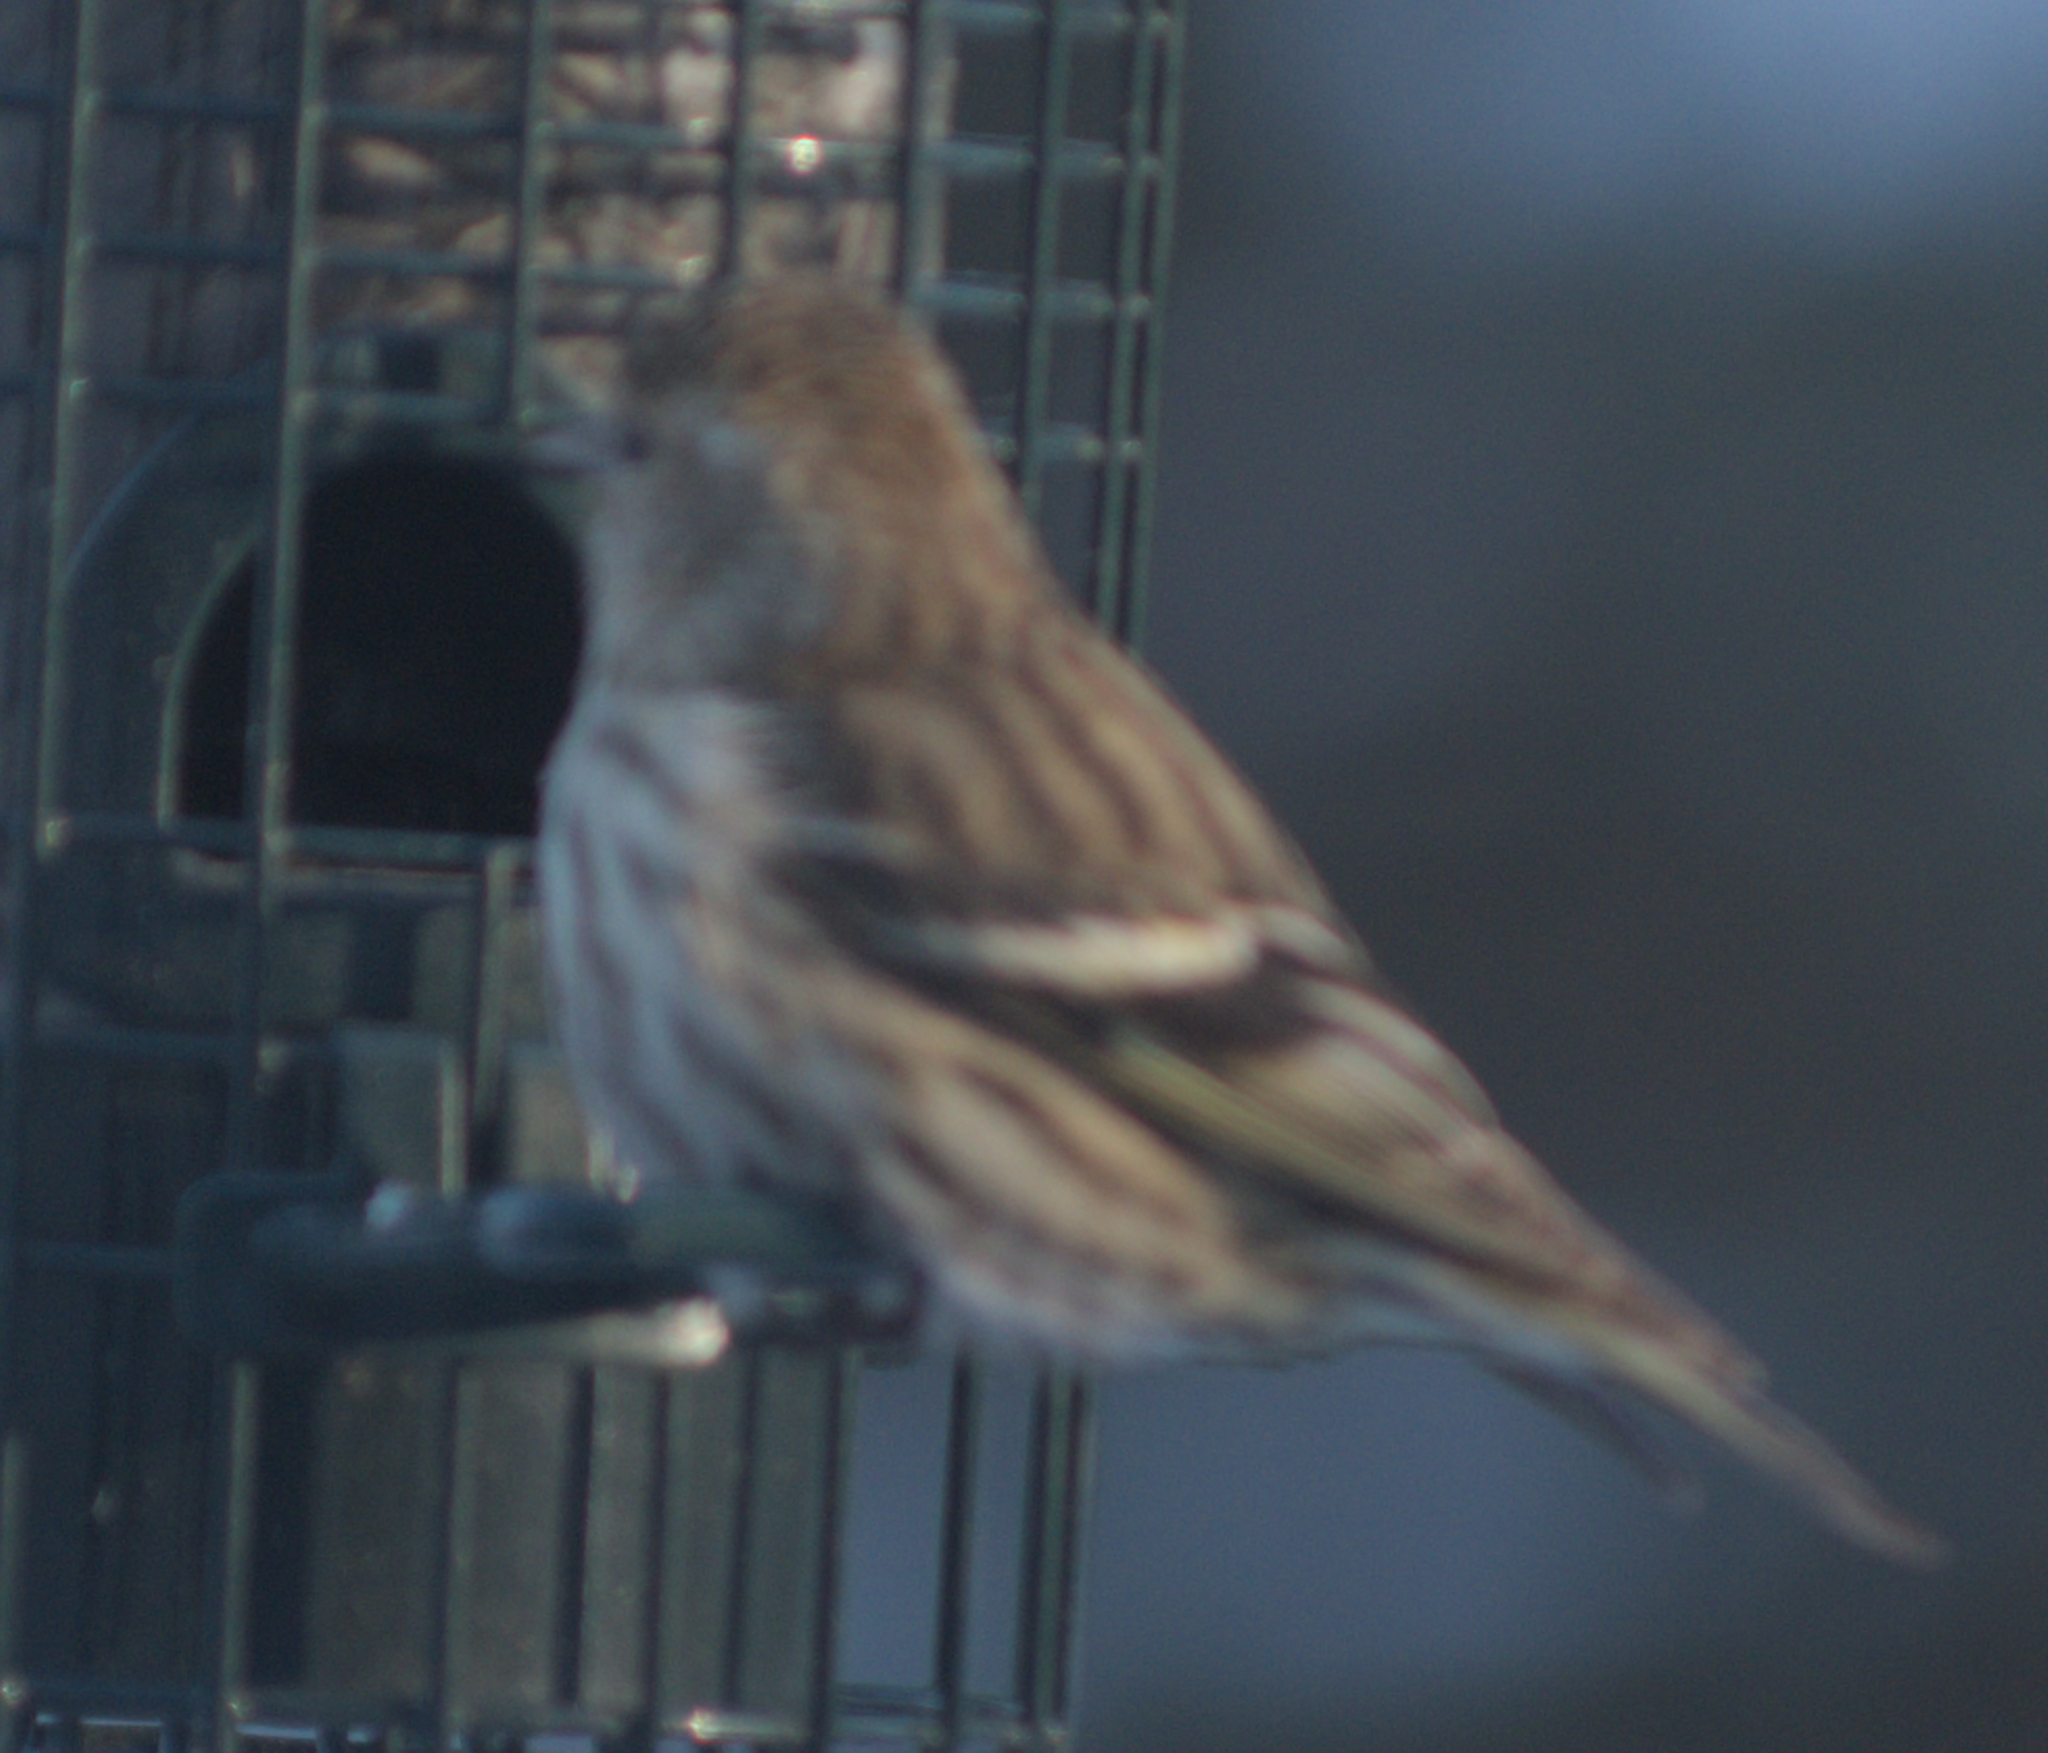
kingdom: Animalia
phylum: Chordata
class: Aves
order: Passeriformes
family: Fringillidae
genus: Spinus
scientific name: Spinus pinus
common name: Pine siskin
